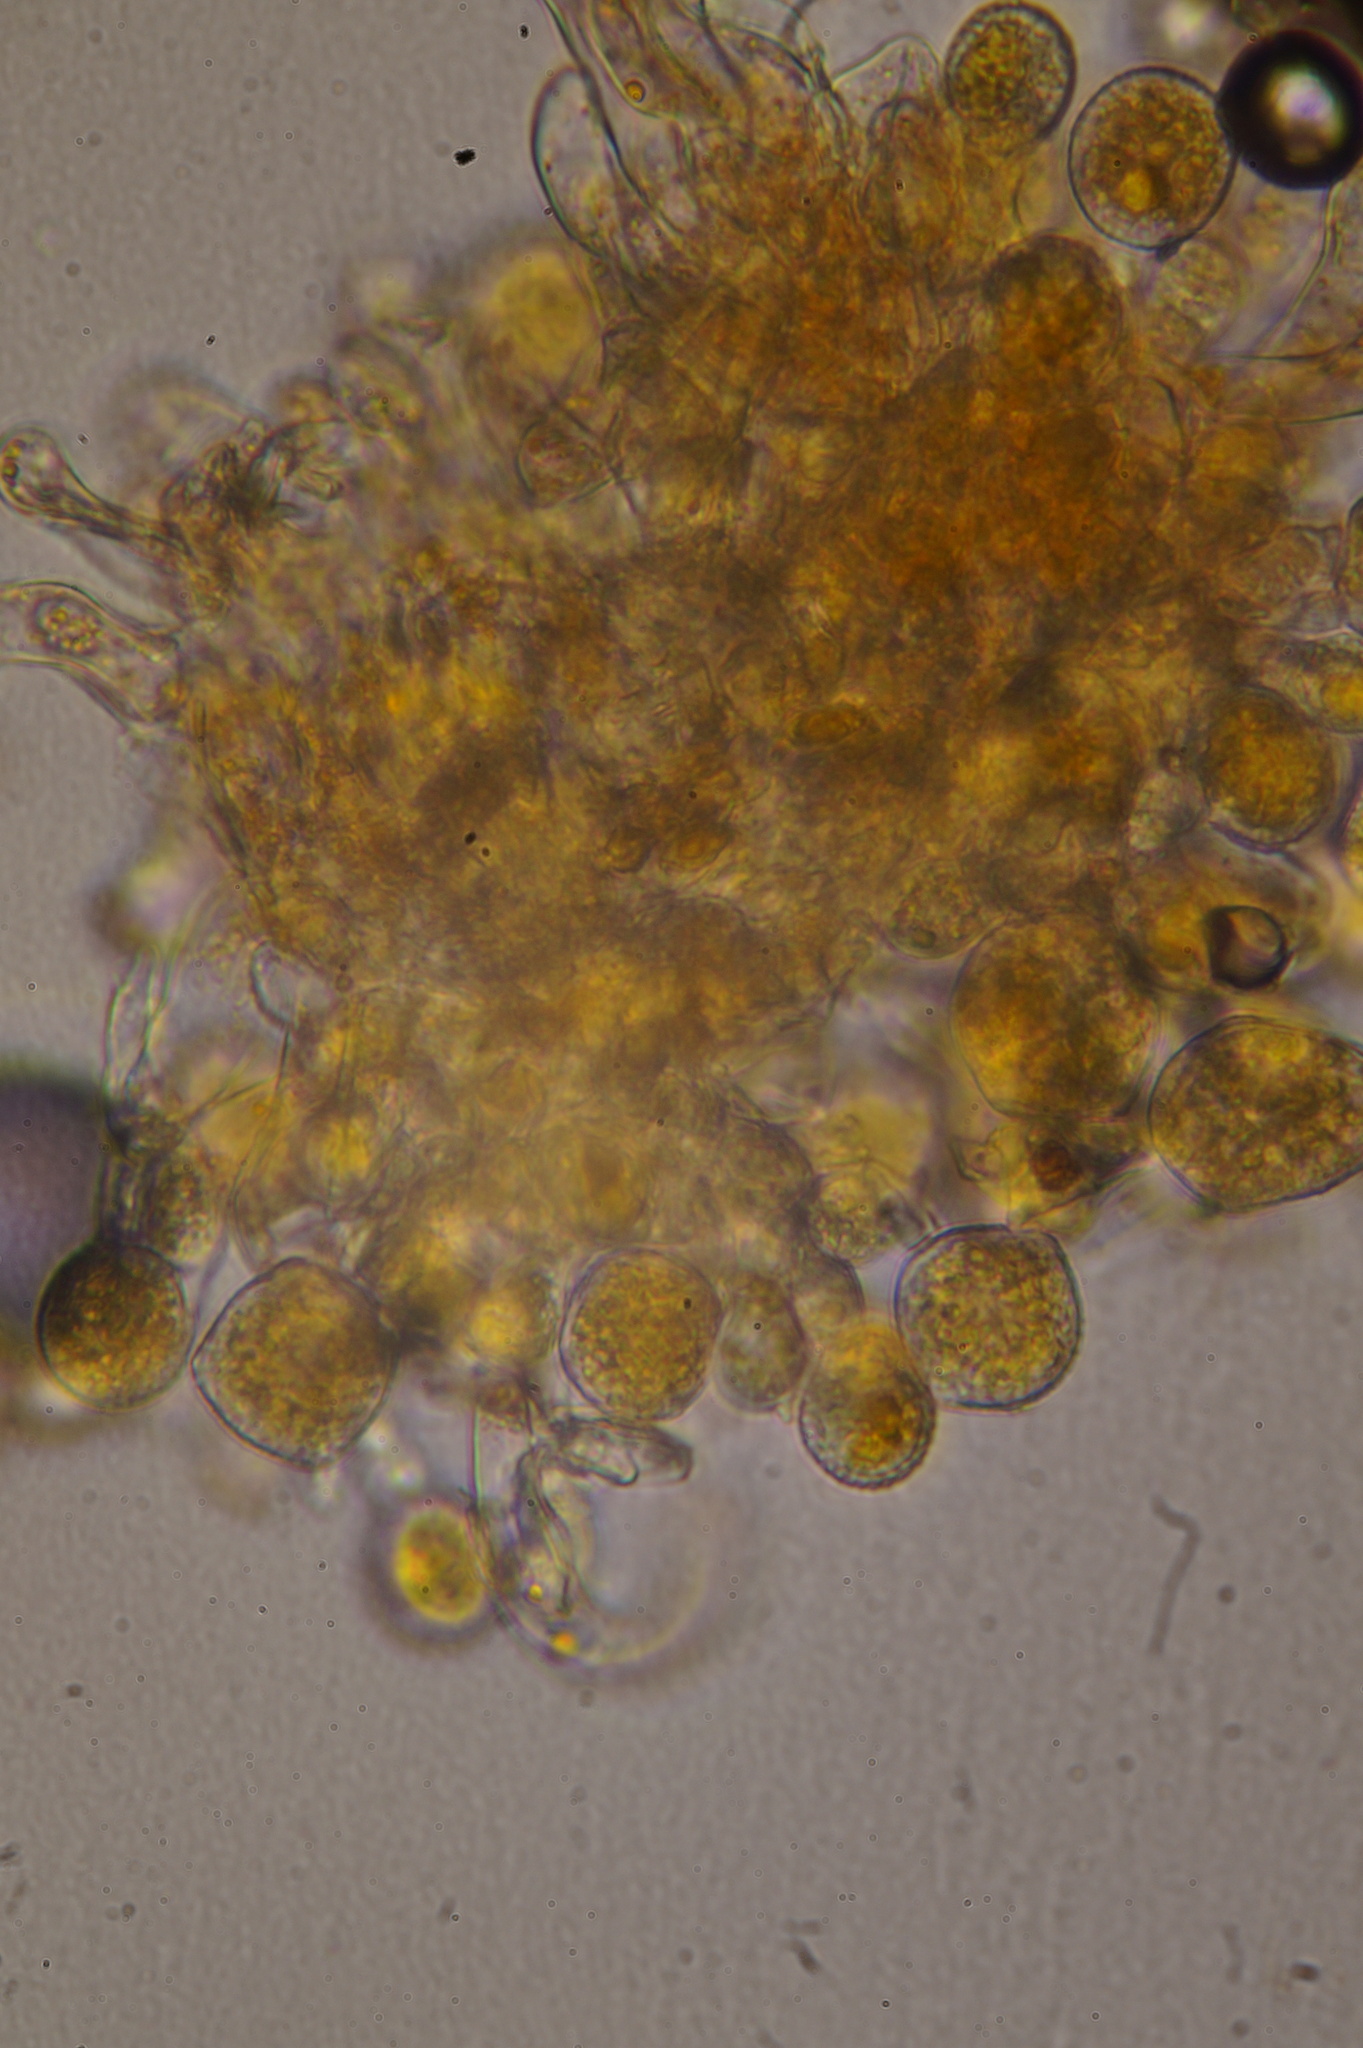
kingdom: Fungi
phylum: Basidiomycota
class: Pucciniomycetes
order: Pucciniales
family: Phragmidiaceae
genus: Phragmidium
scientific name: Phragmidium bulbosum
